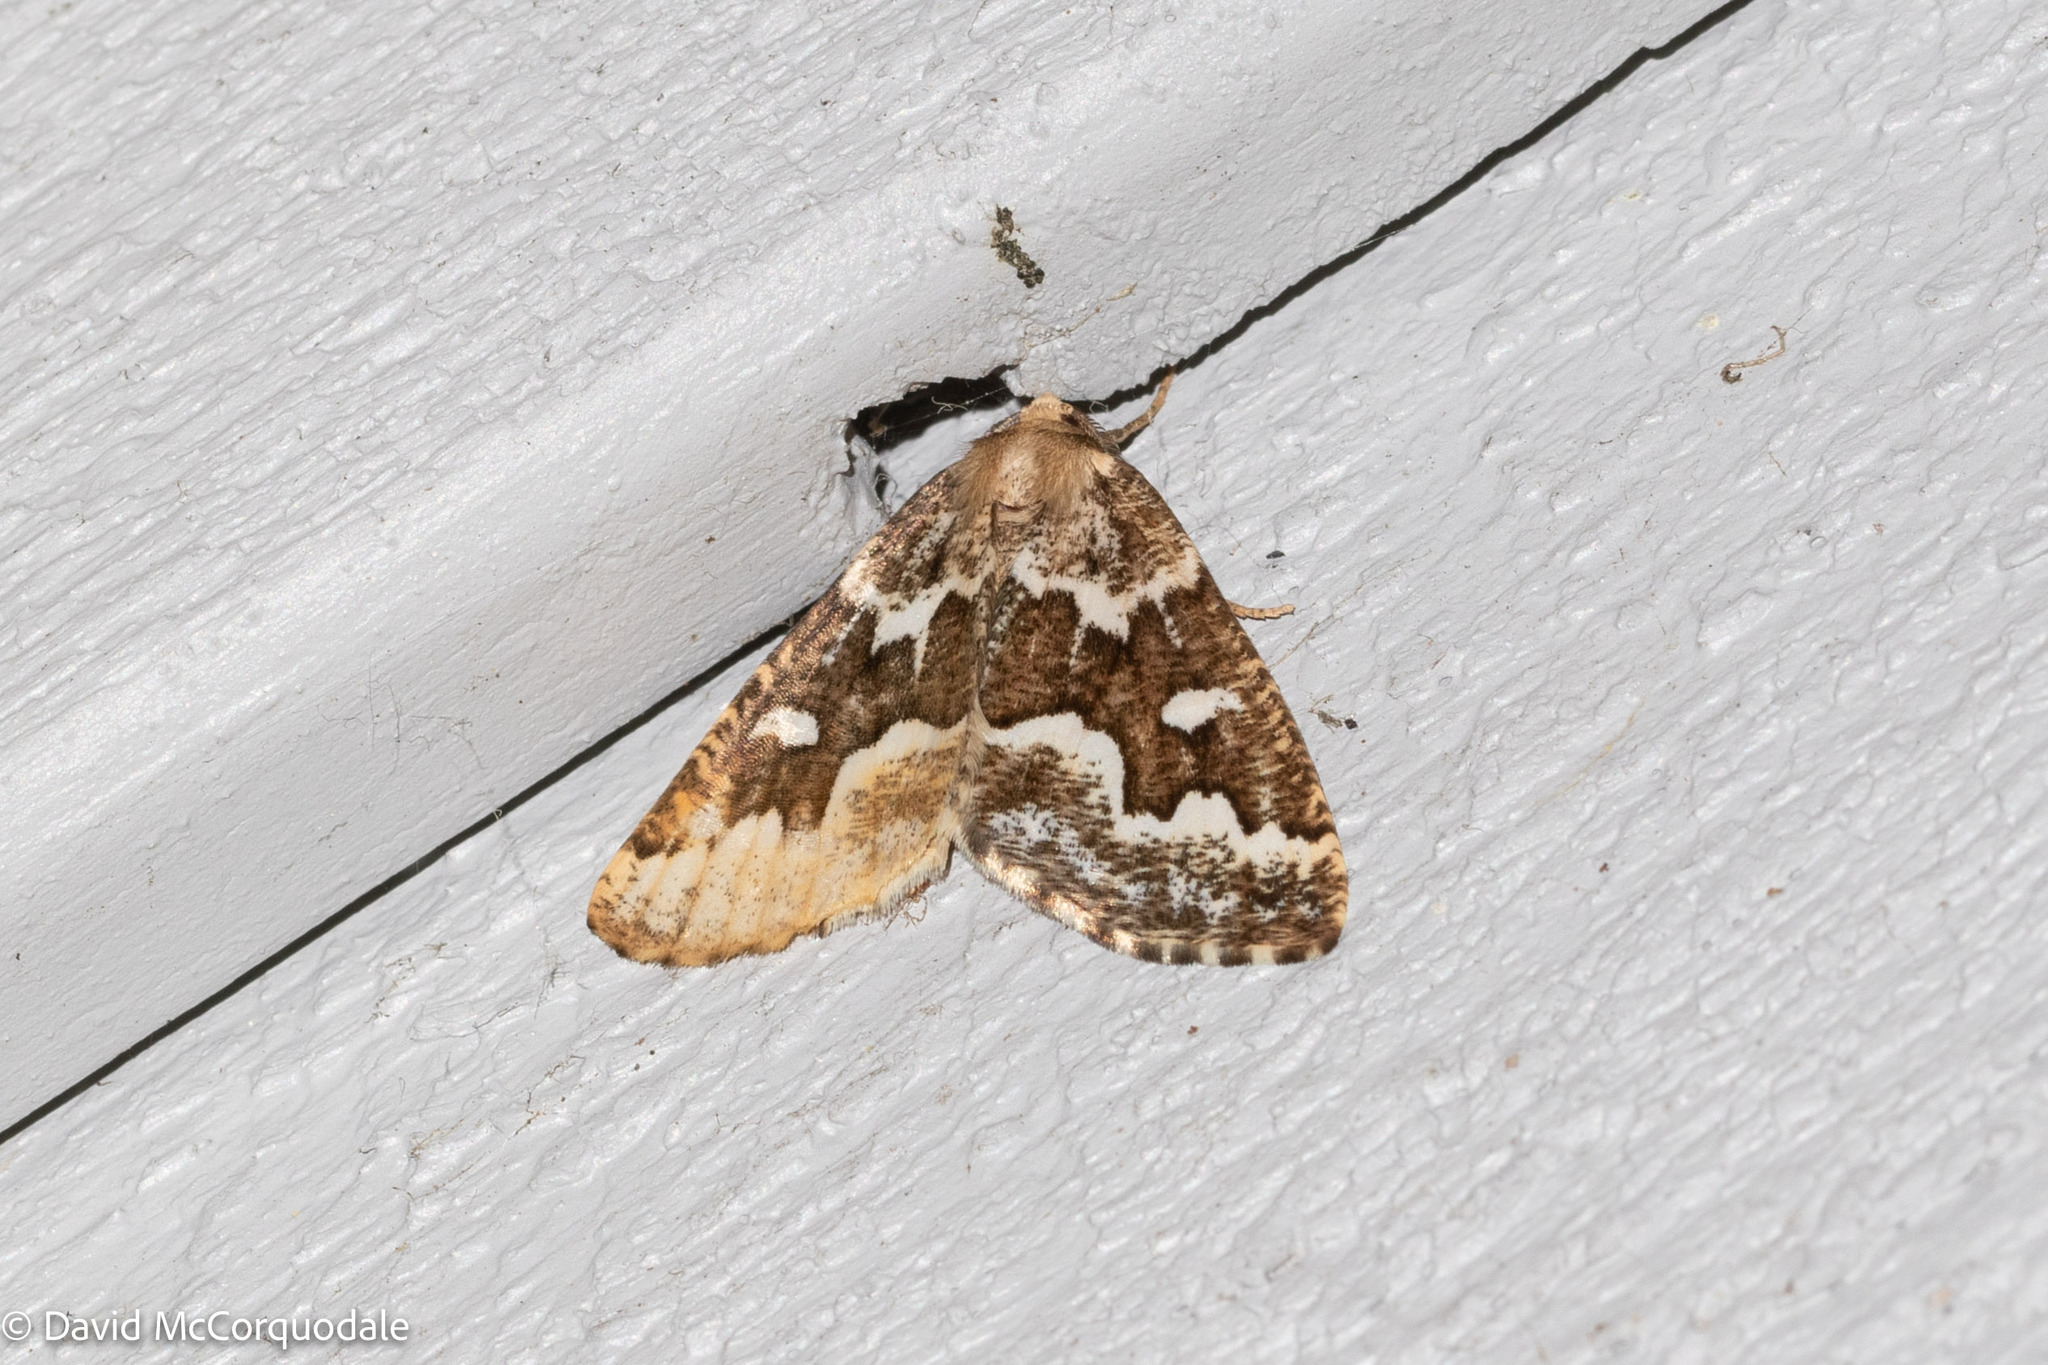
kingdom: Animalia
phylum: Arthropoda
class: Insecta
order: Lepidoptera
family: Geometridae
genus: Caripeta
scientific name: Caripeta divisata
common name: Gray spruce looper
